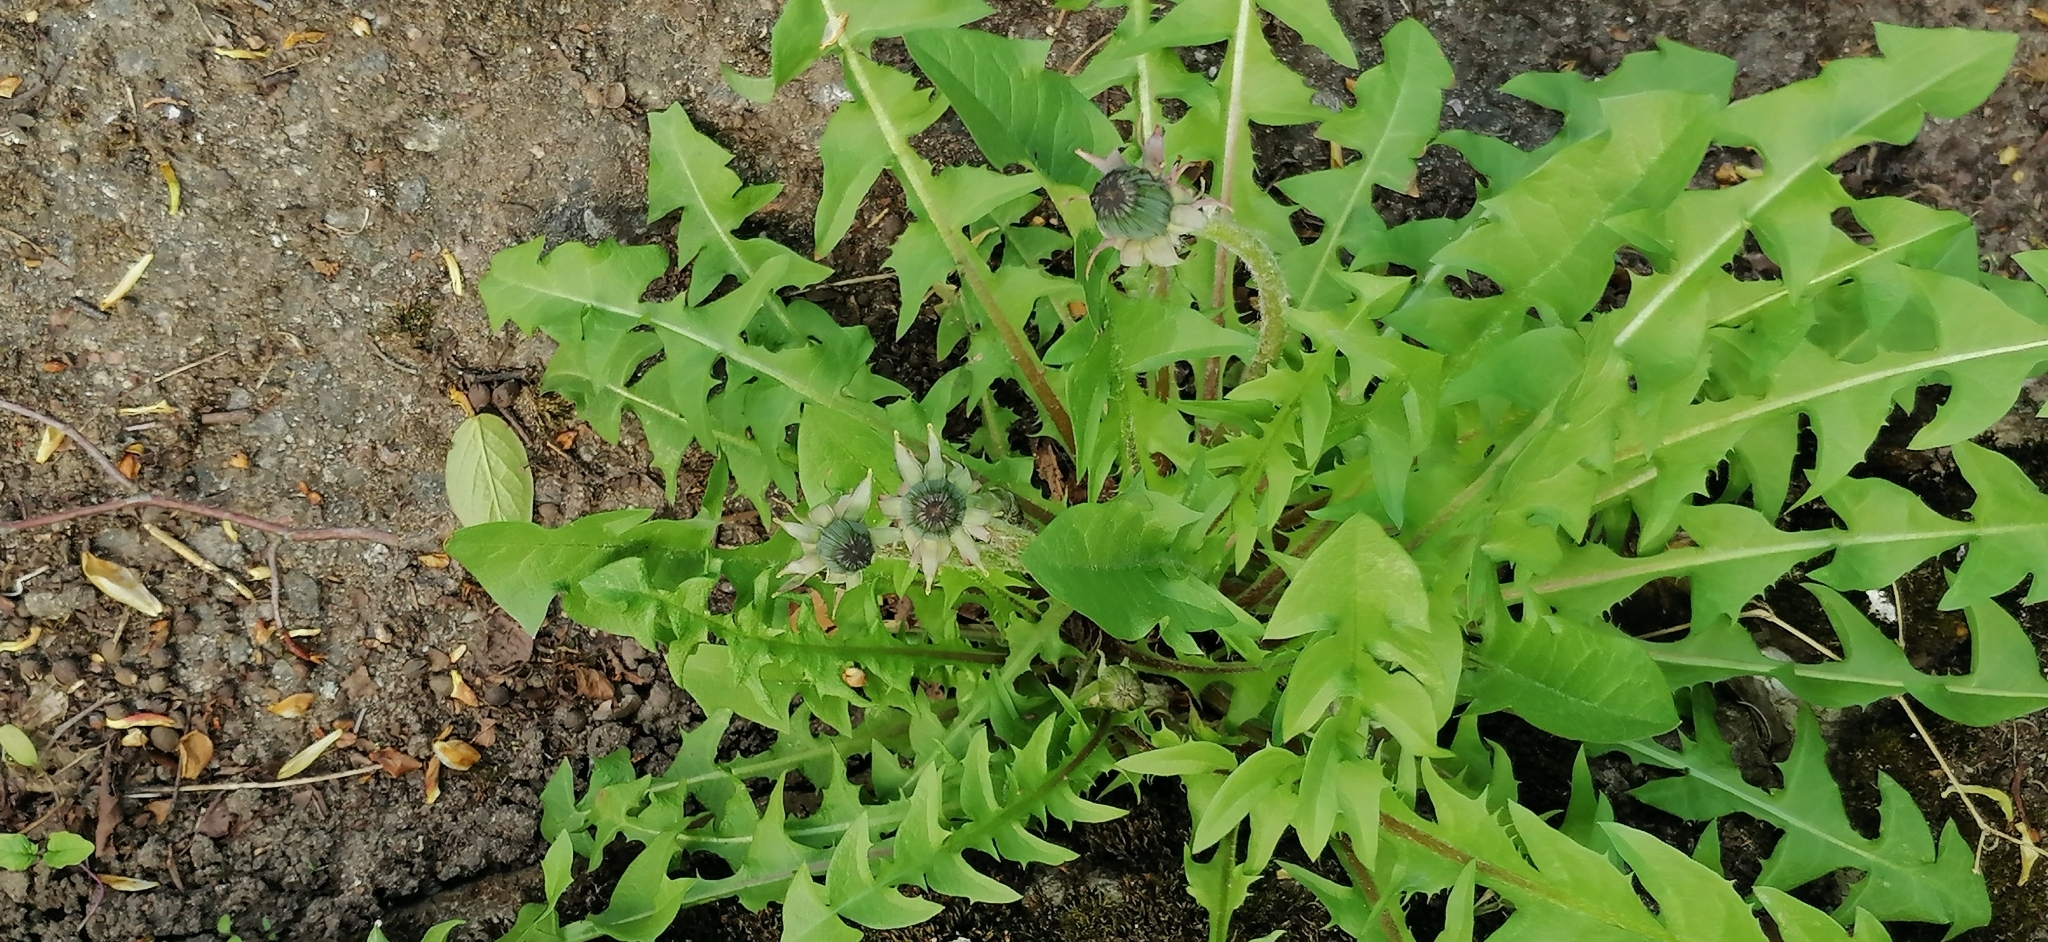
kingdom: Plantae
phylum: Tracheophyta
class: Magnoliopsida
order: Asterales
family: Asteraceae
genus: Taraxacum
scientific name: Taraxacum officinale
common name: Common dandelion
